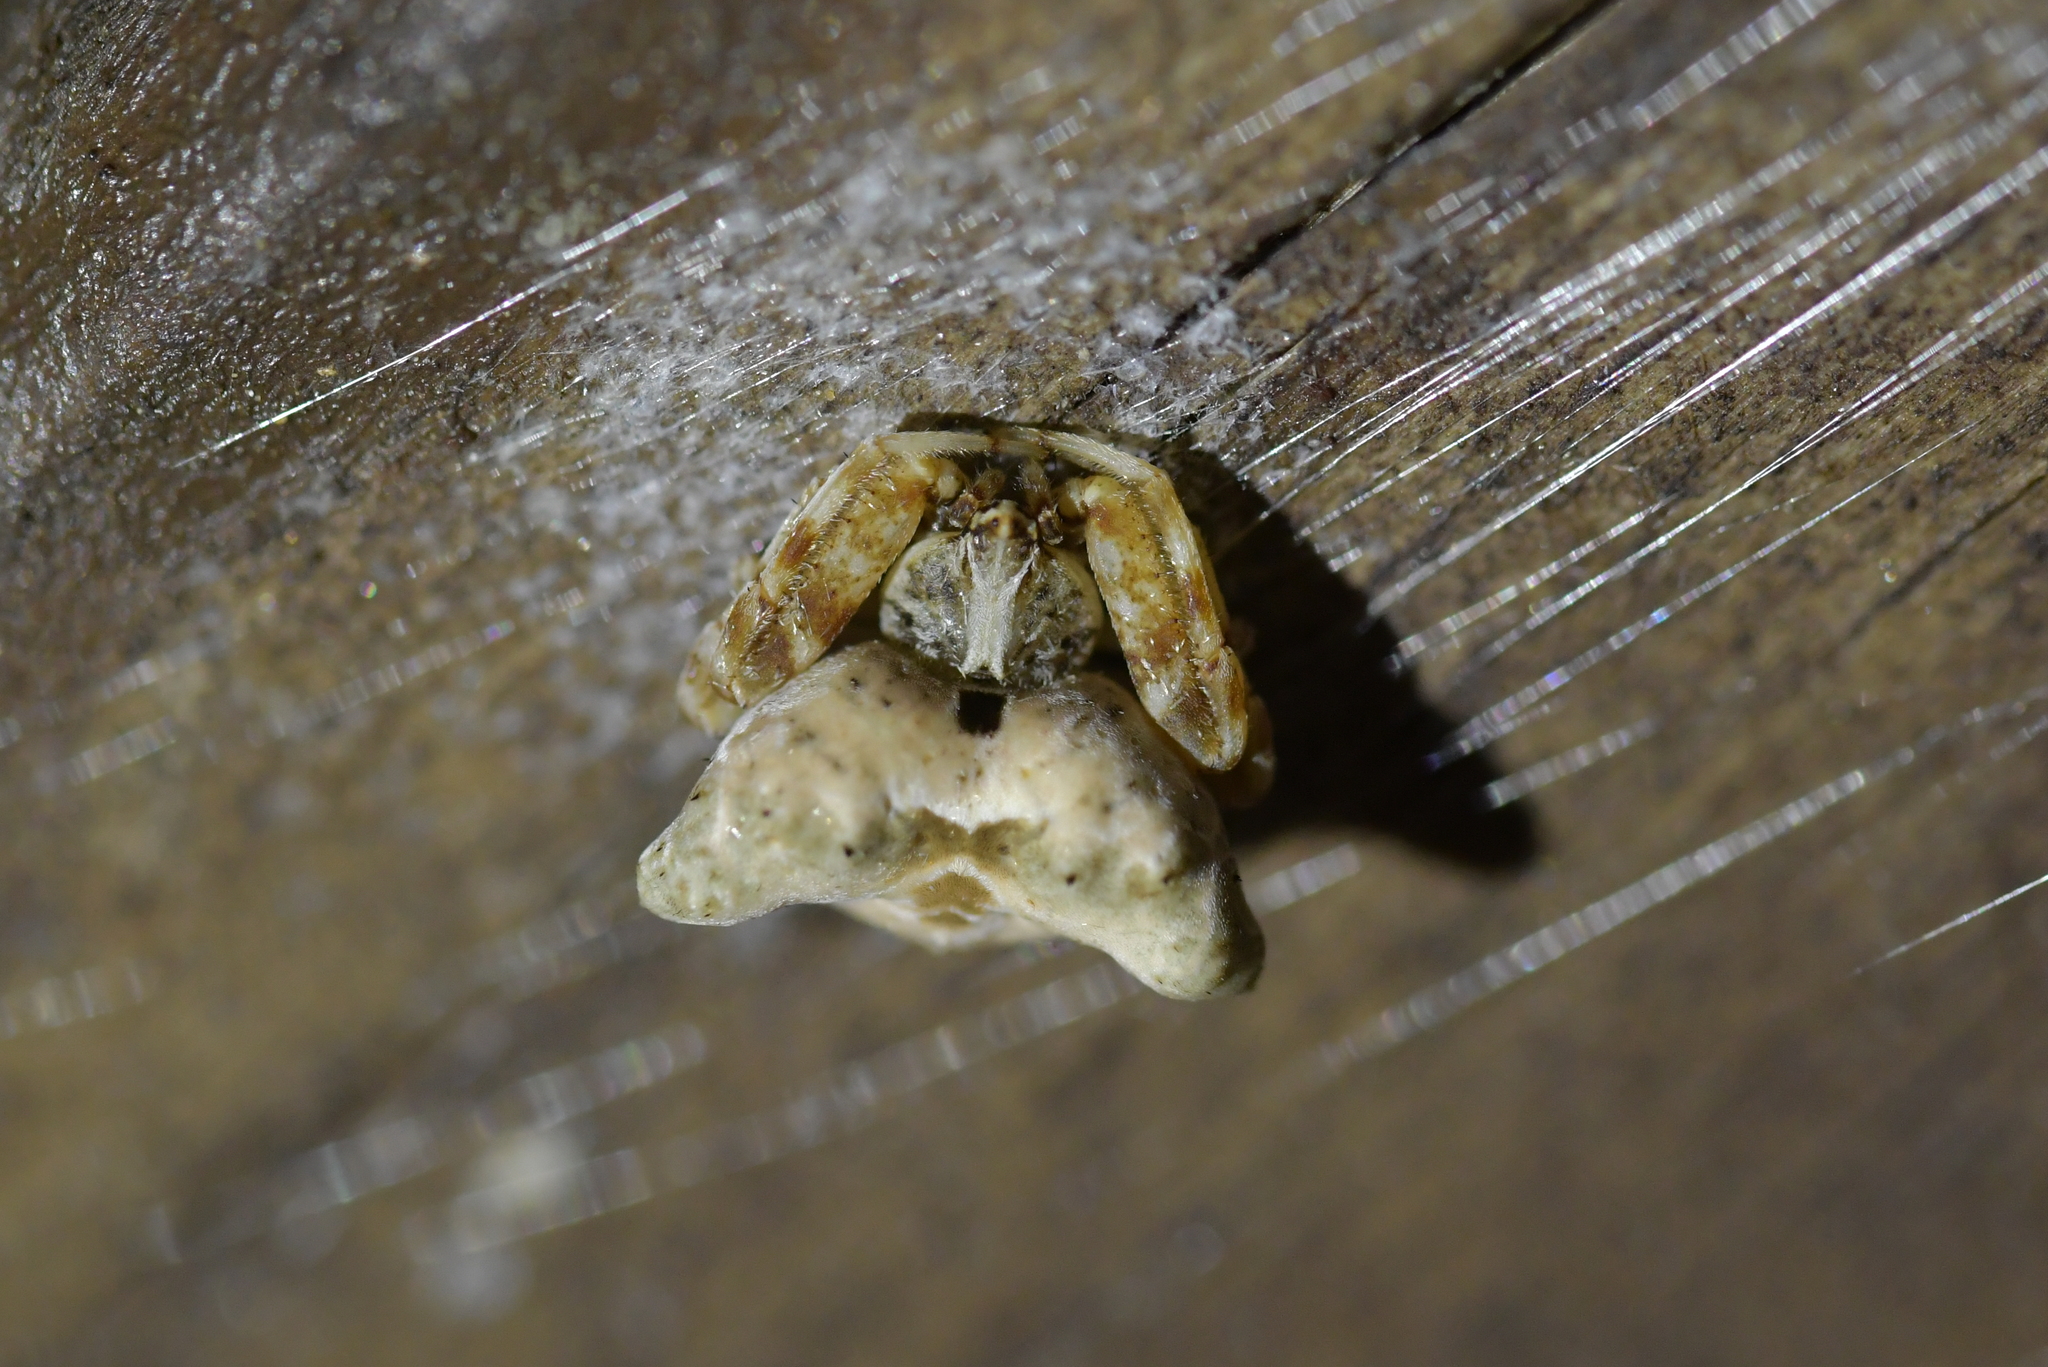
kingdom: Animalia
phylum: Arthropoda
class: Arachnida
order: Araneae
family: Araneidae
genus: Celaenia
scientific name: Celaenia olivacea
